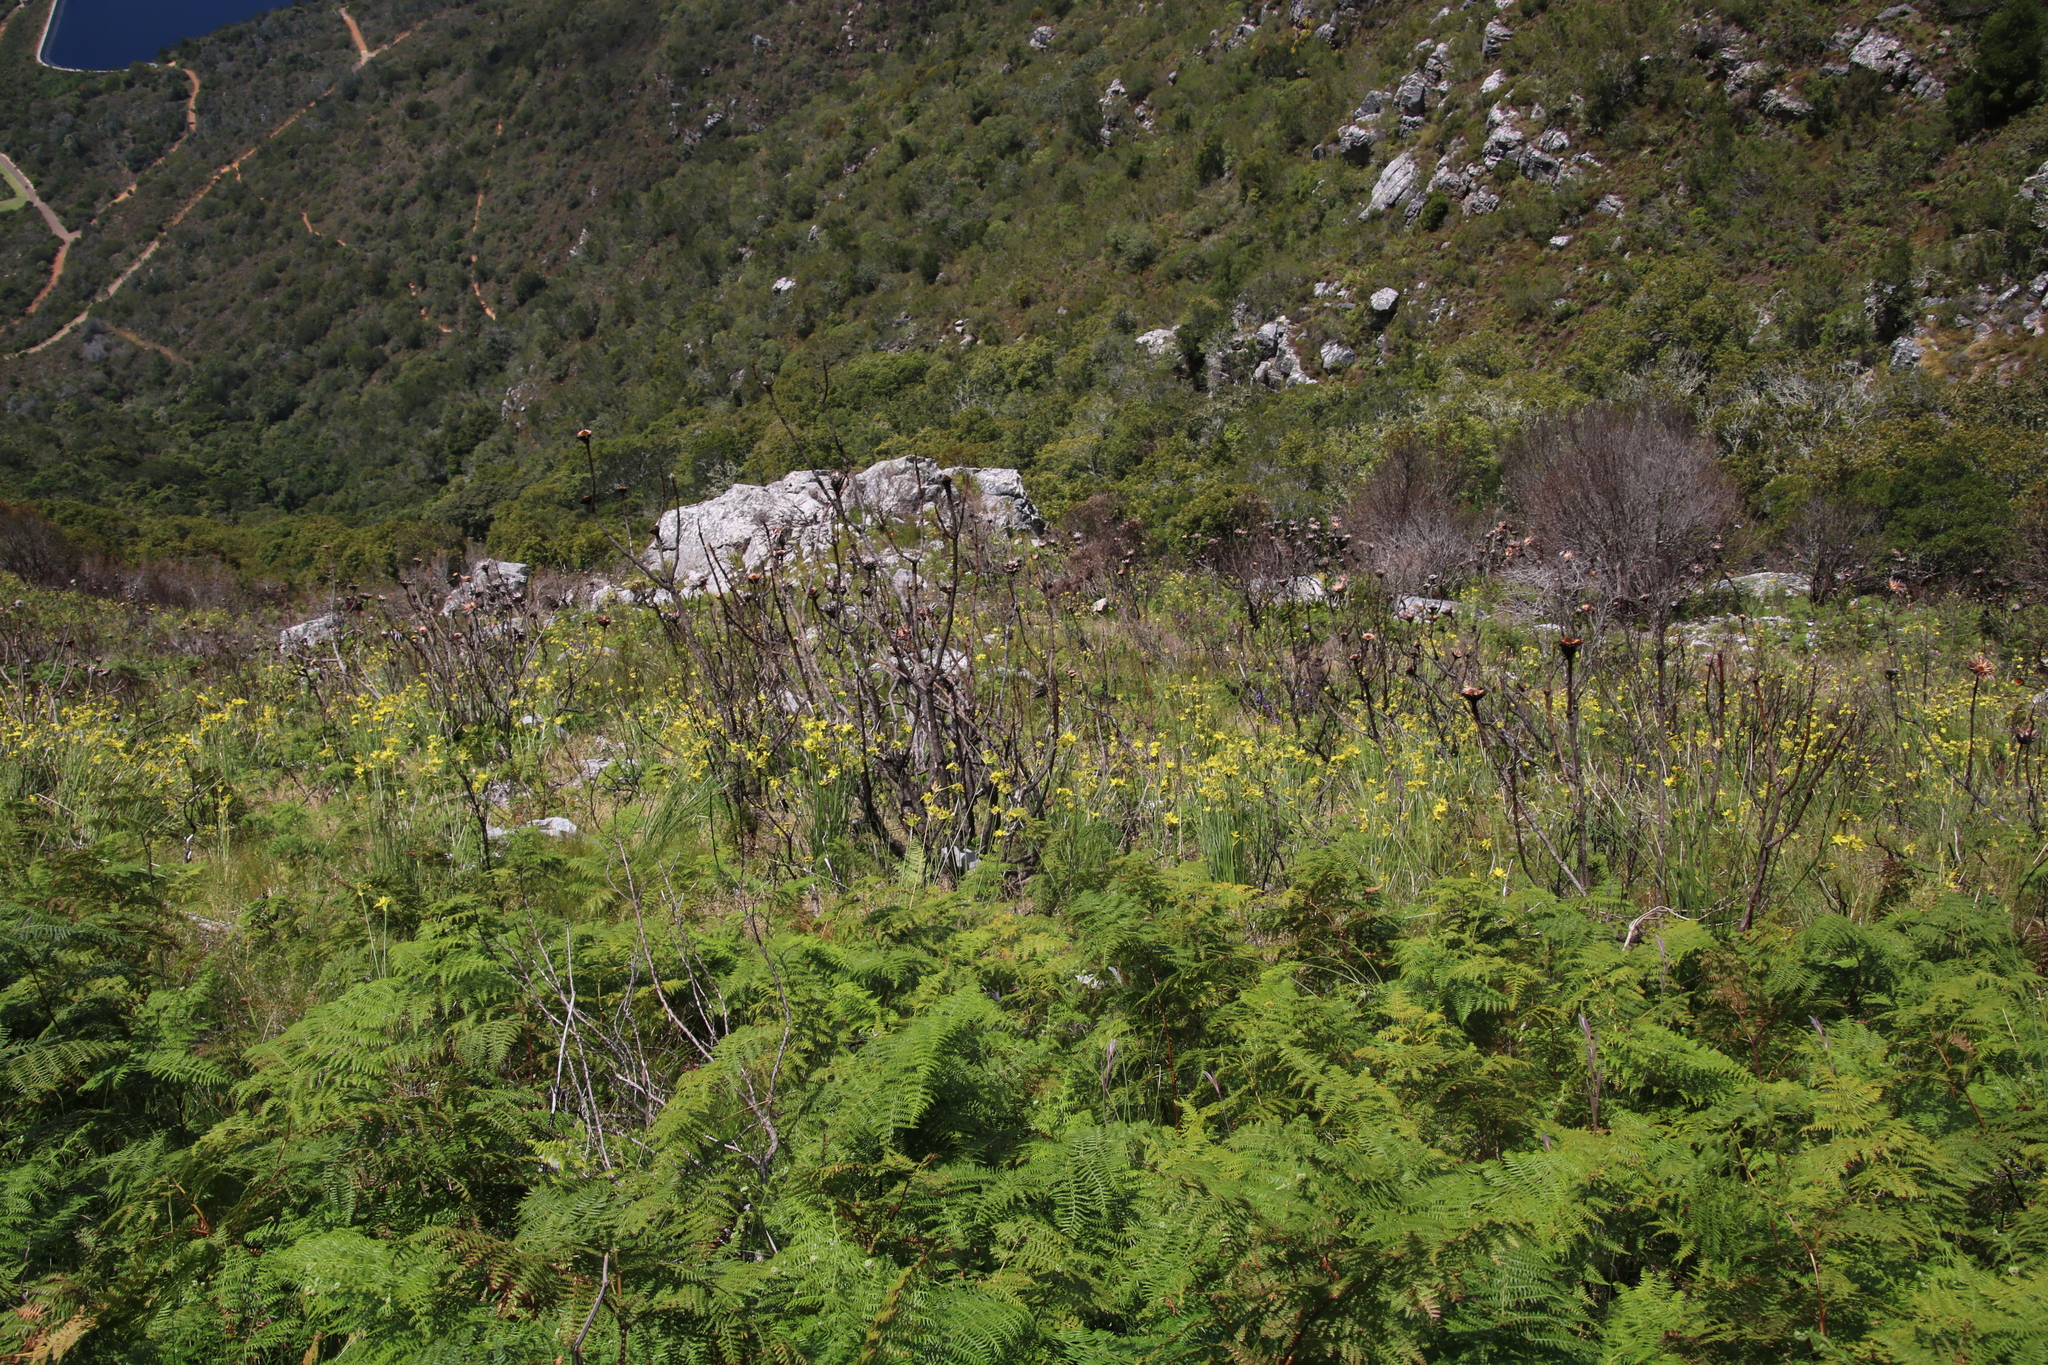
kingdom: Plantae
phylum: Tracheophyta
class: Liliopsida
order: Asparagales
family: Iridaceae
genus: Bobartia
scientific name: Bobartia indica
